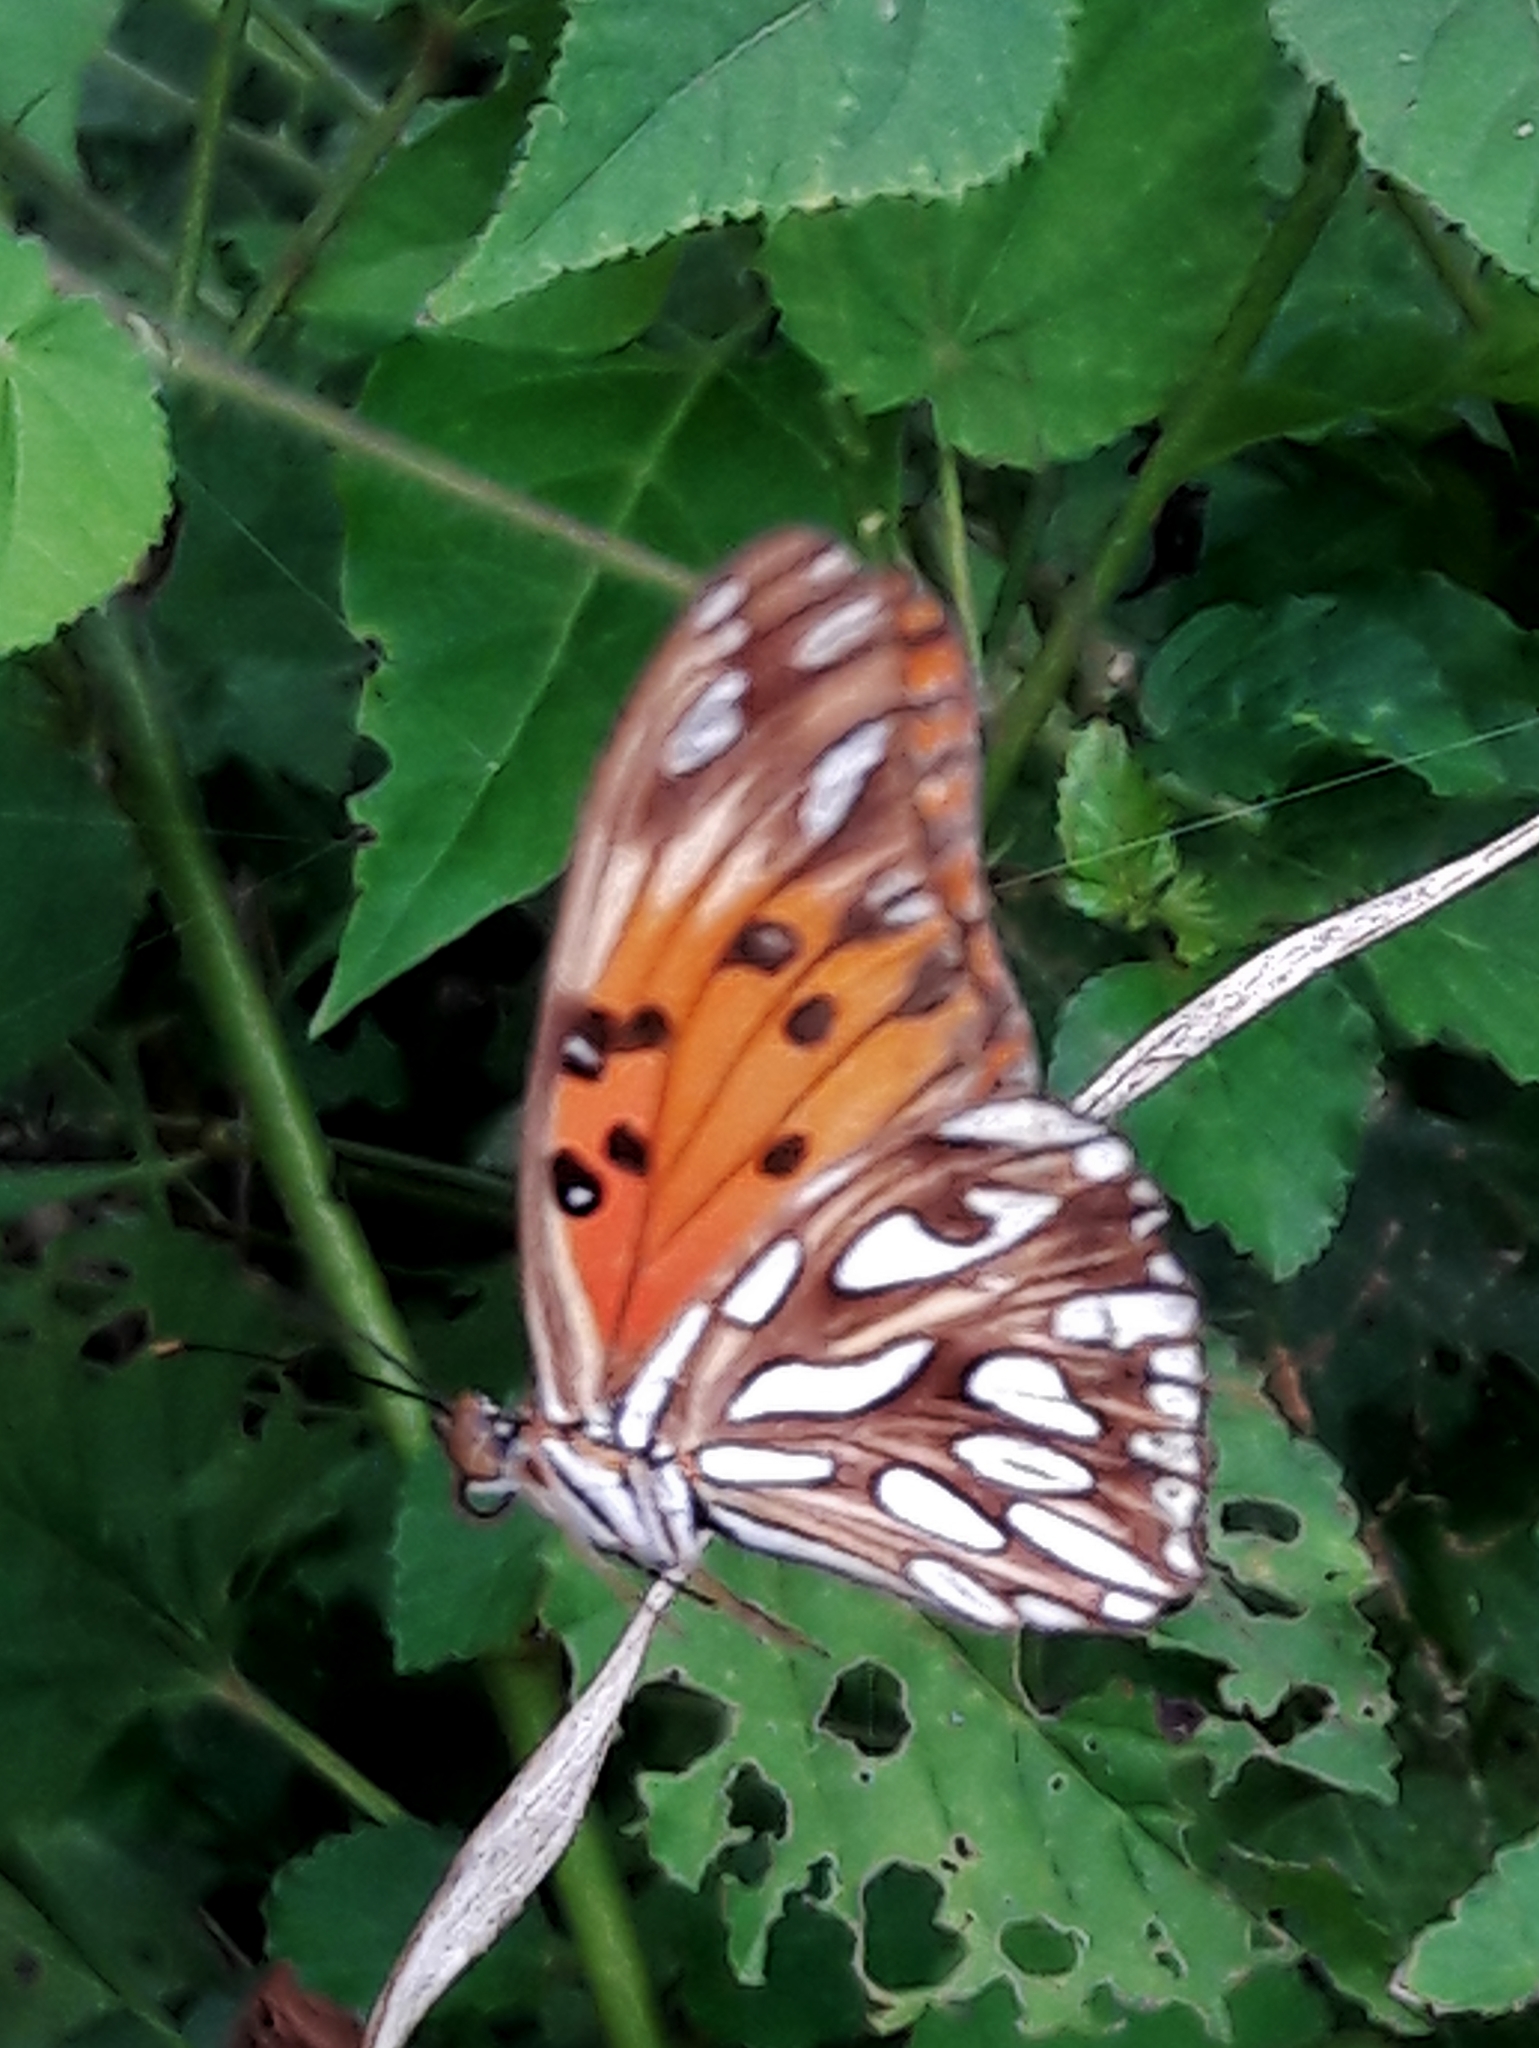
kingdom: Animalia
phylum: Arthropoda
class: Insecta
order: Lepidoptera
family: Nymphalidae
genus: Dione
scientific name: Dione vanillae
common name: Gulf fritillary
